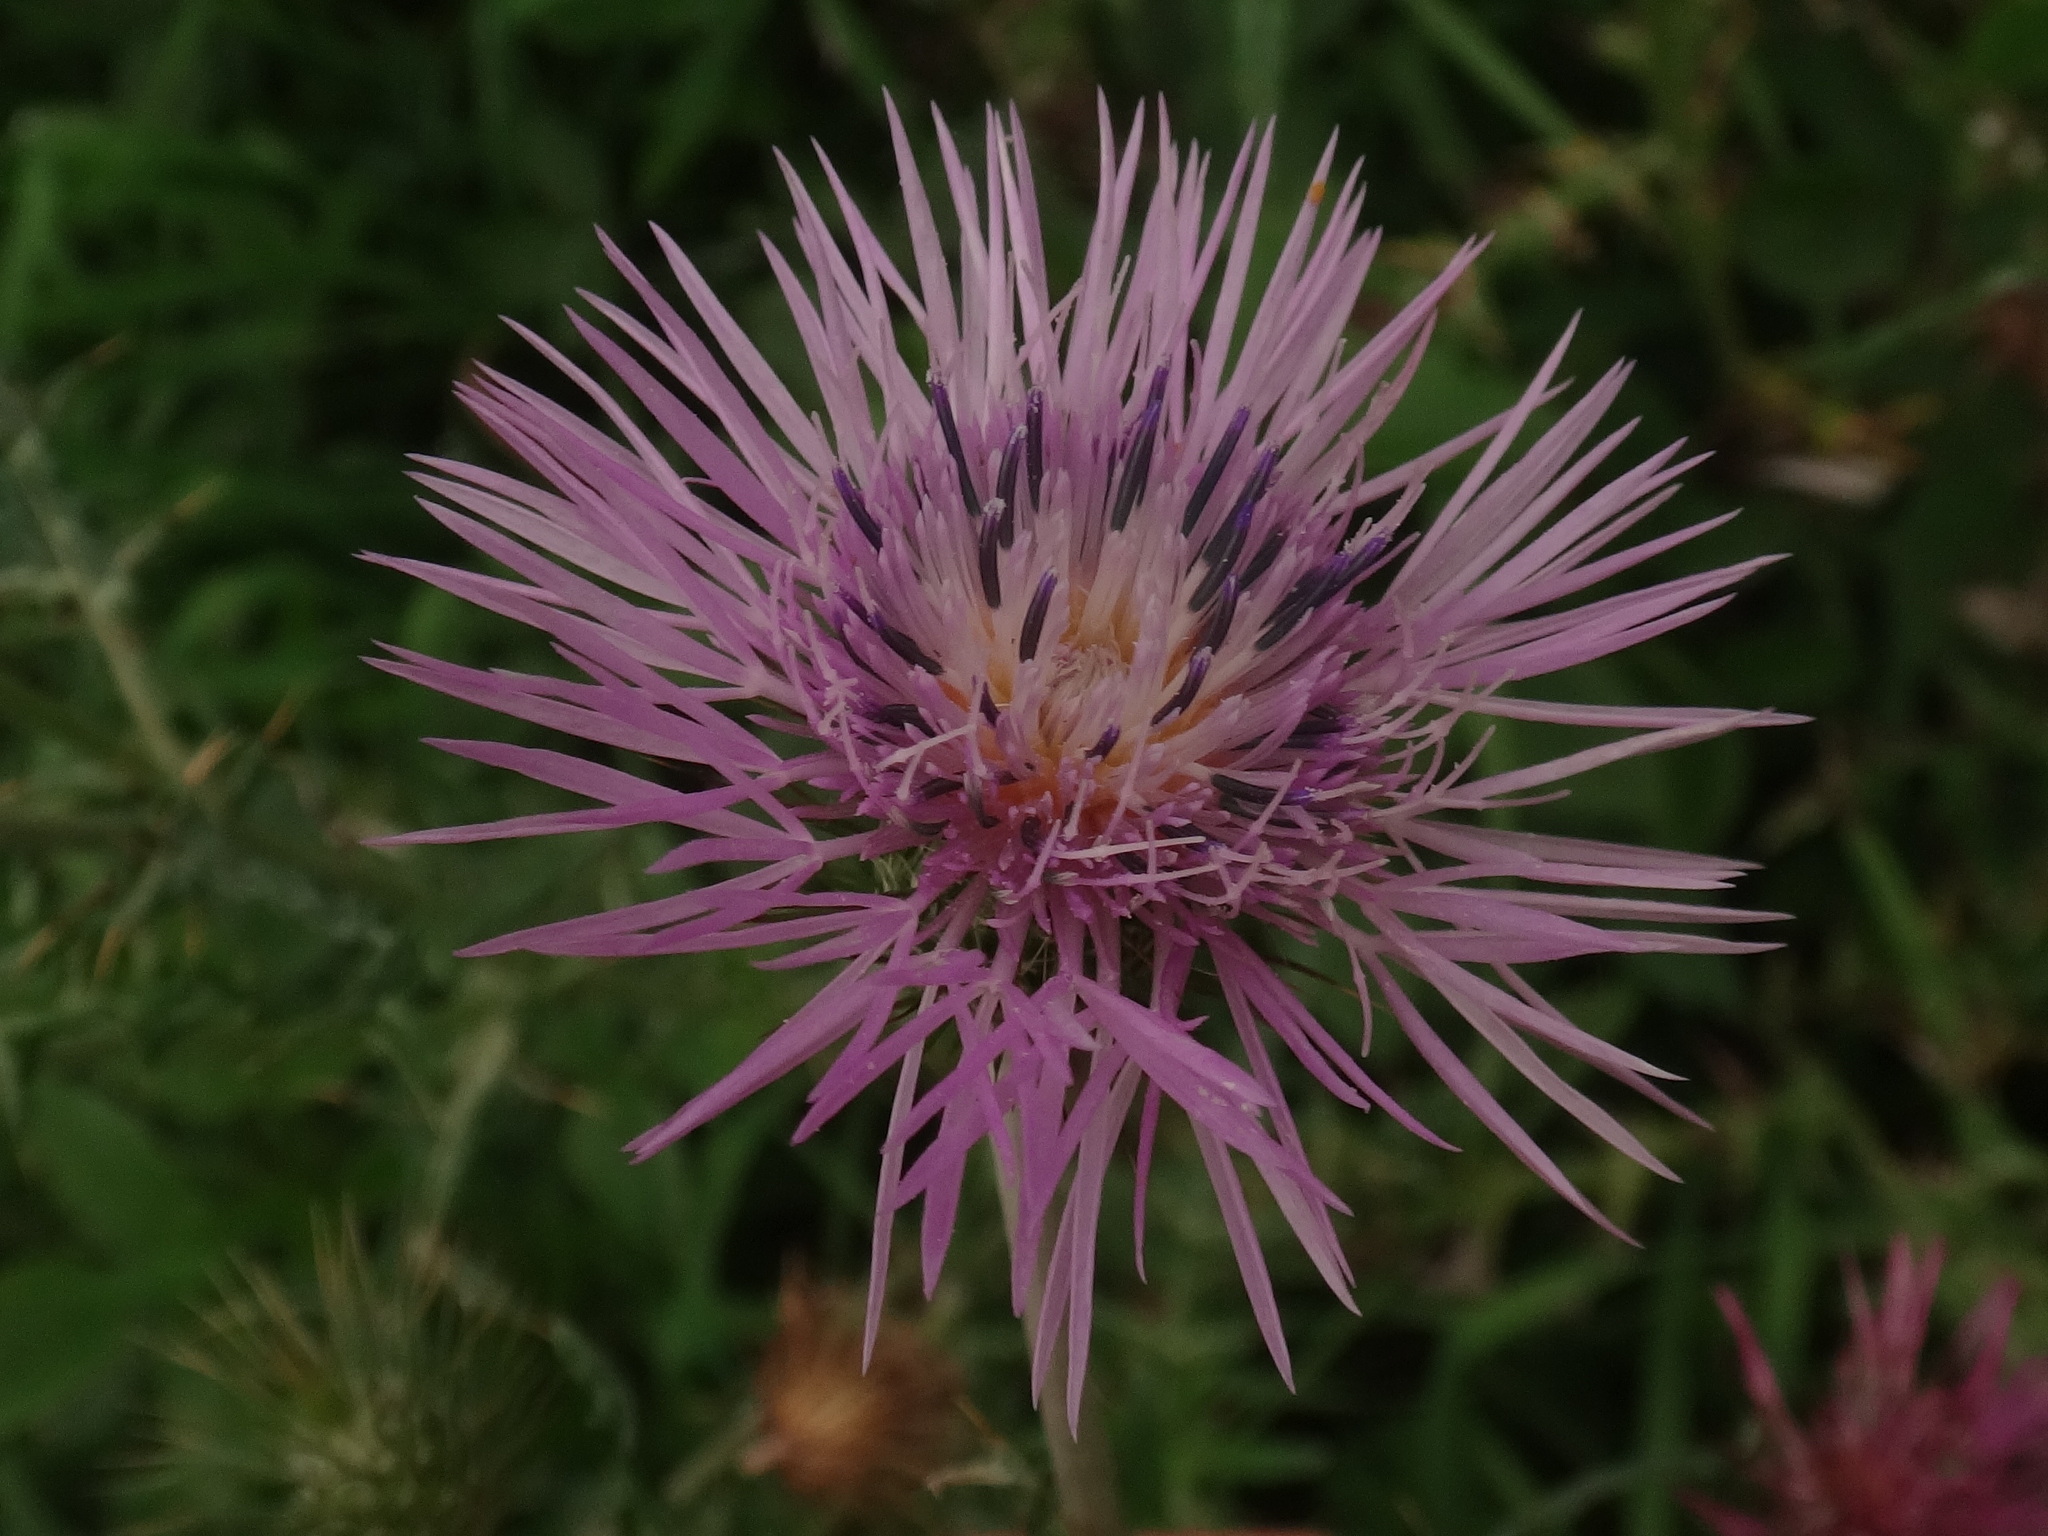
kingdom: Plantae
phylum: Tracheophyta
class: Magnoliopsida
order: Asterales
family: Asteraceae
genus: Galactites
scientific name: Galactites tomentosa
